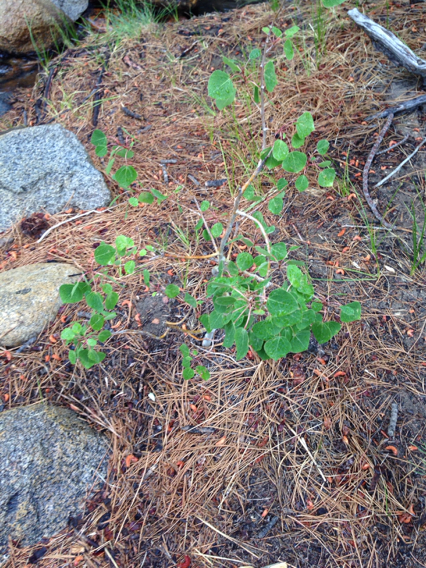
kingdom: Plantae
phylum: Tracheophyta
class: Magnoliopsida
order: Malpighiales
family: Salicaceae
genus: Populus
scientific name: Populus tremuloides
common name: Quaking aspen
